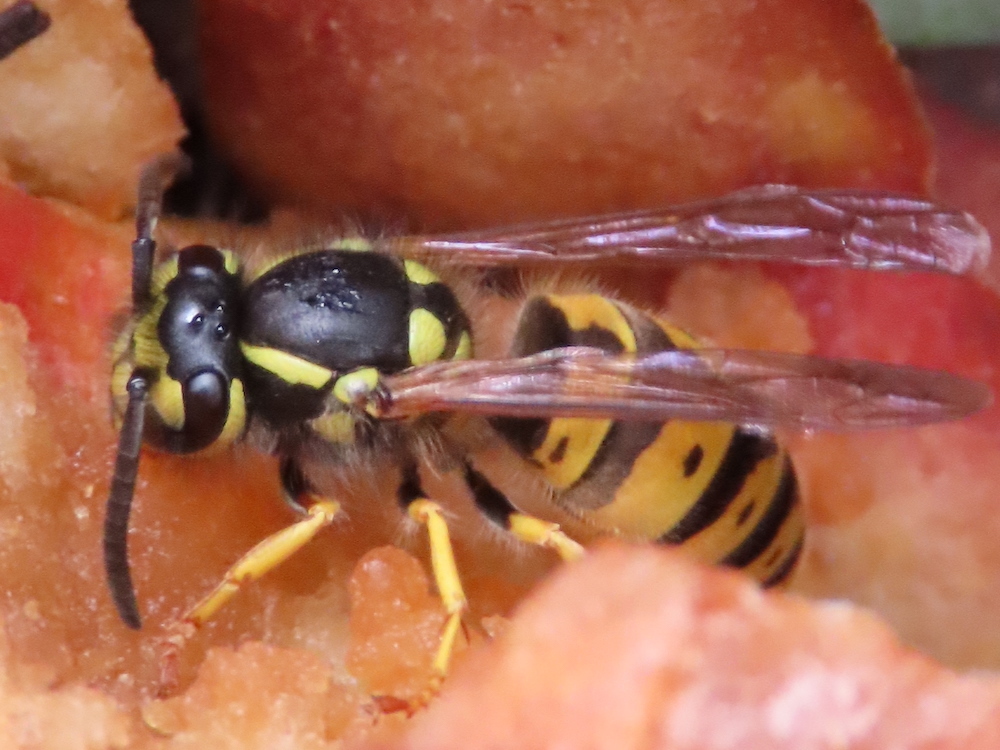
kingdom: Animalia
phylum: Arthropoda
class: Insecta
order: Hymenoptera
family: Vespidae
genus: Vespula
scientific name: Vespula germanica
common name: German wasp
